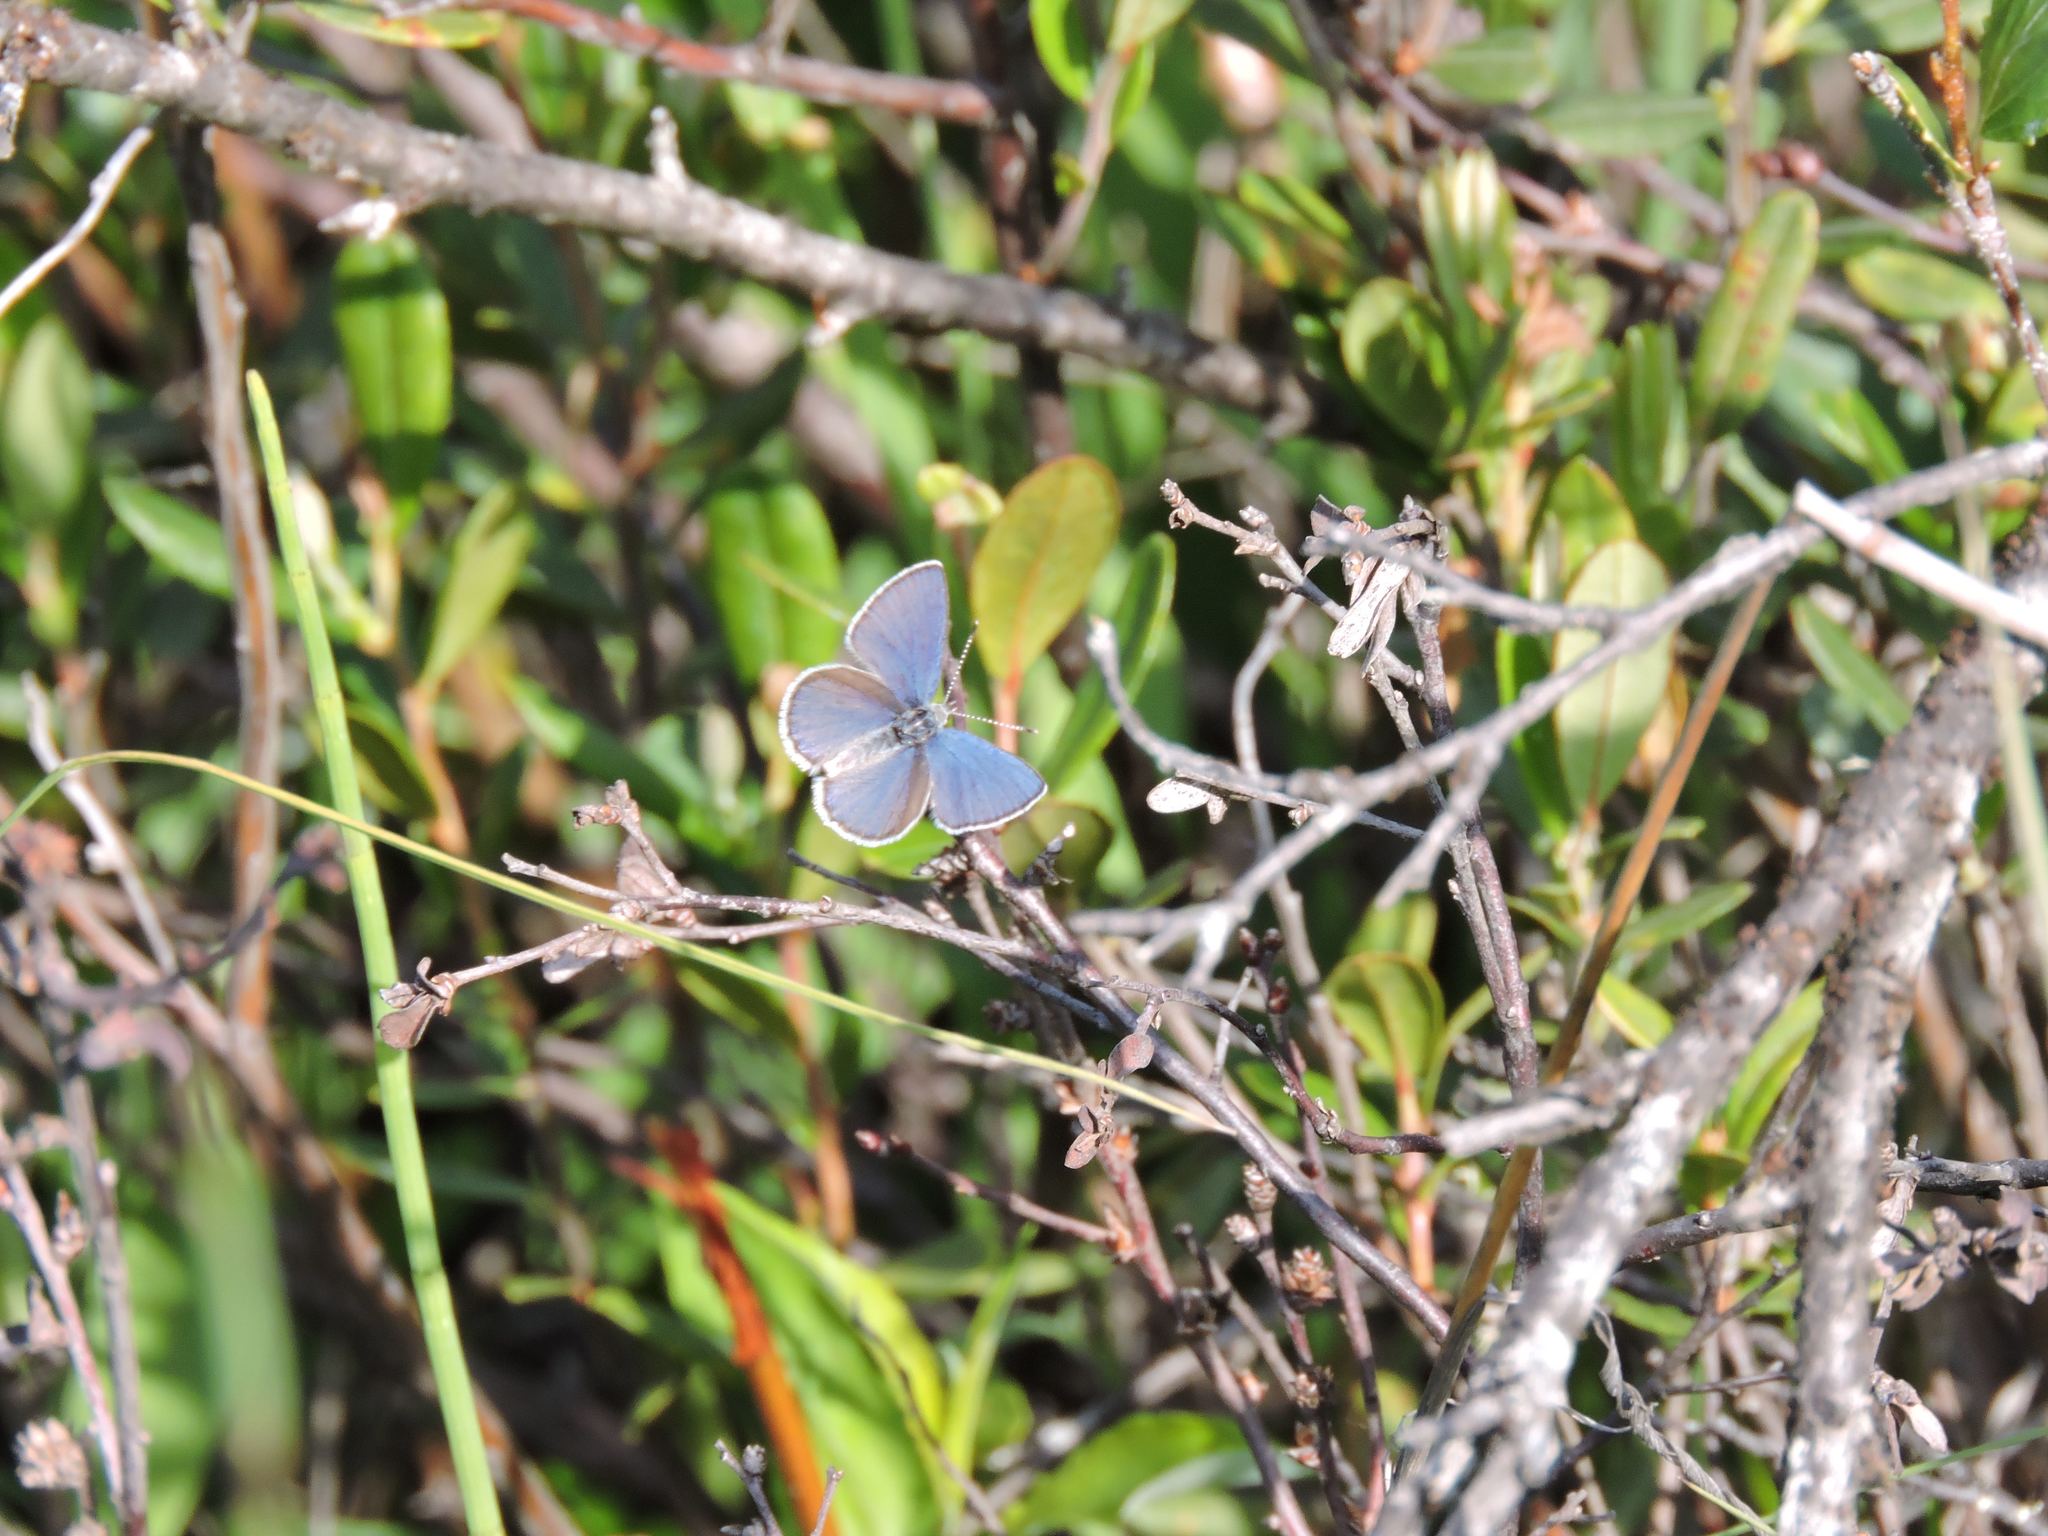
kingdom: Animalia
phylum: Arthropoda
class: Insecta
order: Lepidoptera
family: Lycaenidae
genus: Lycaeides
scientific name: Lycaeides idas
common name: Northern blue
